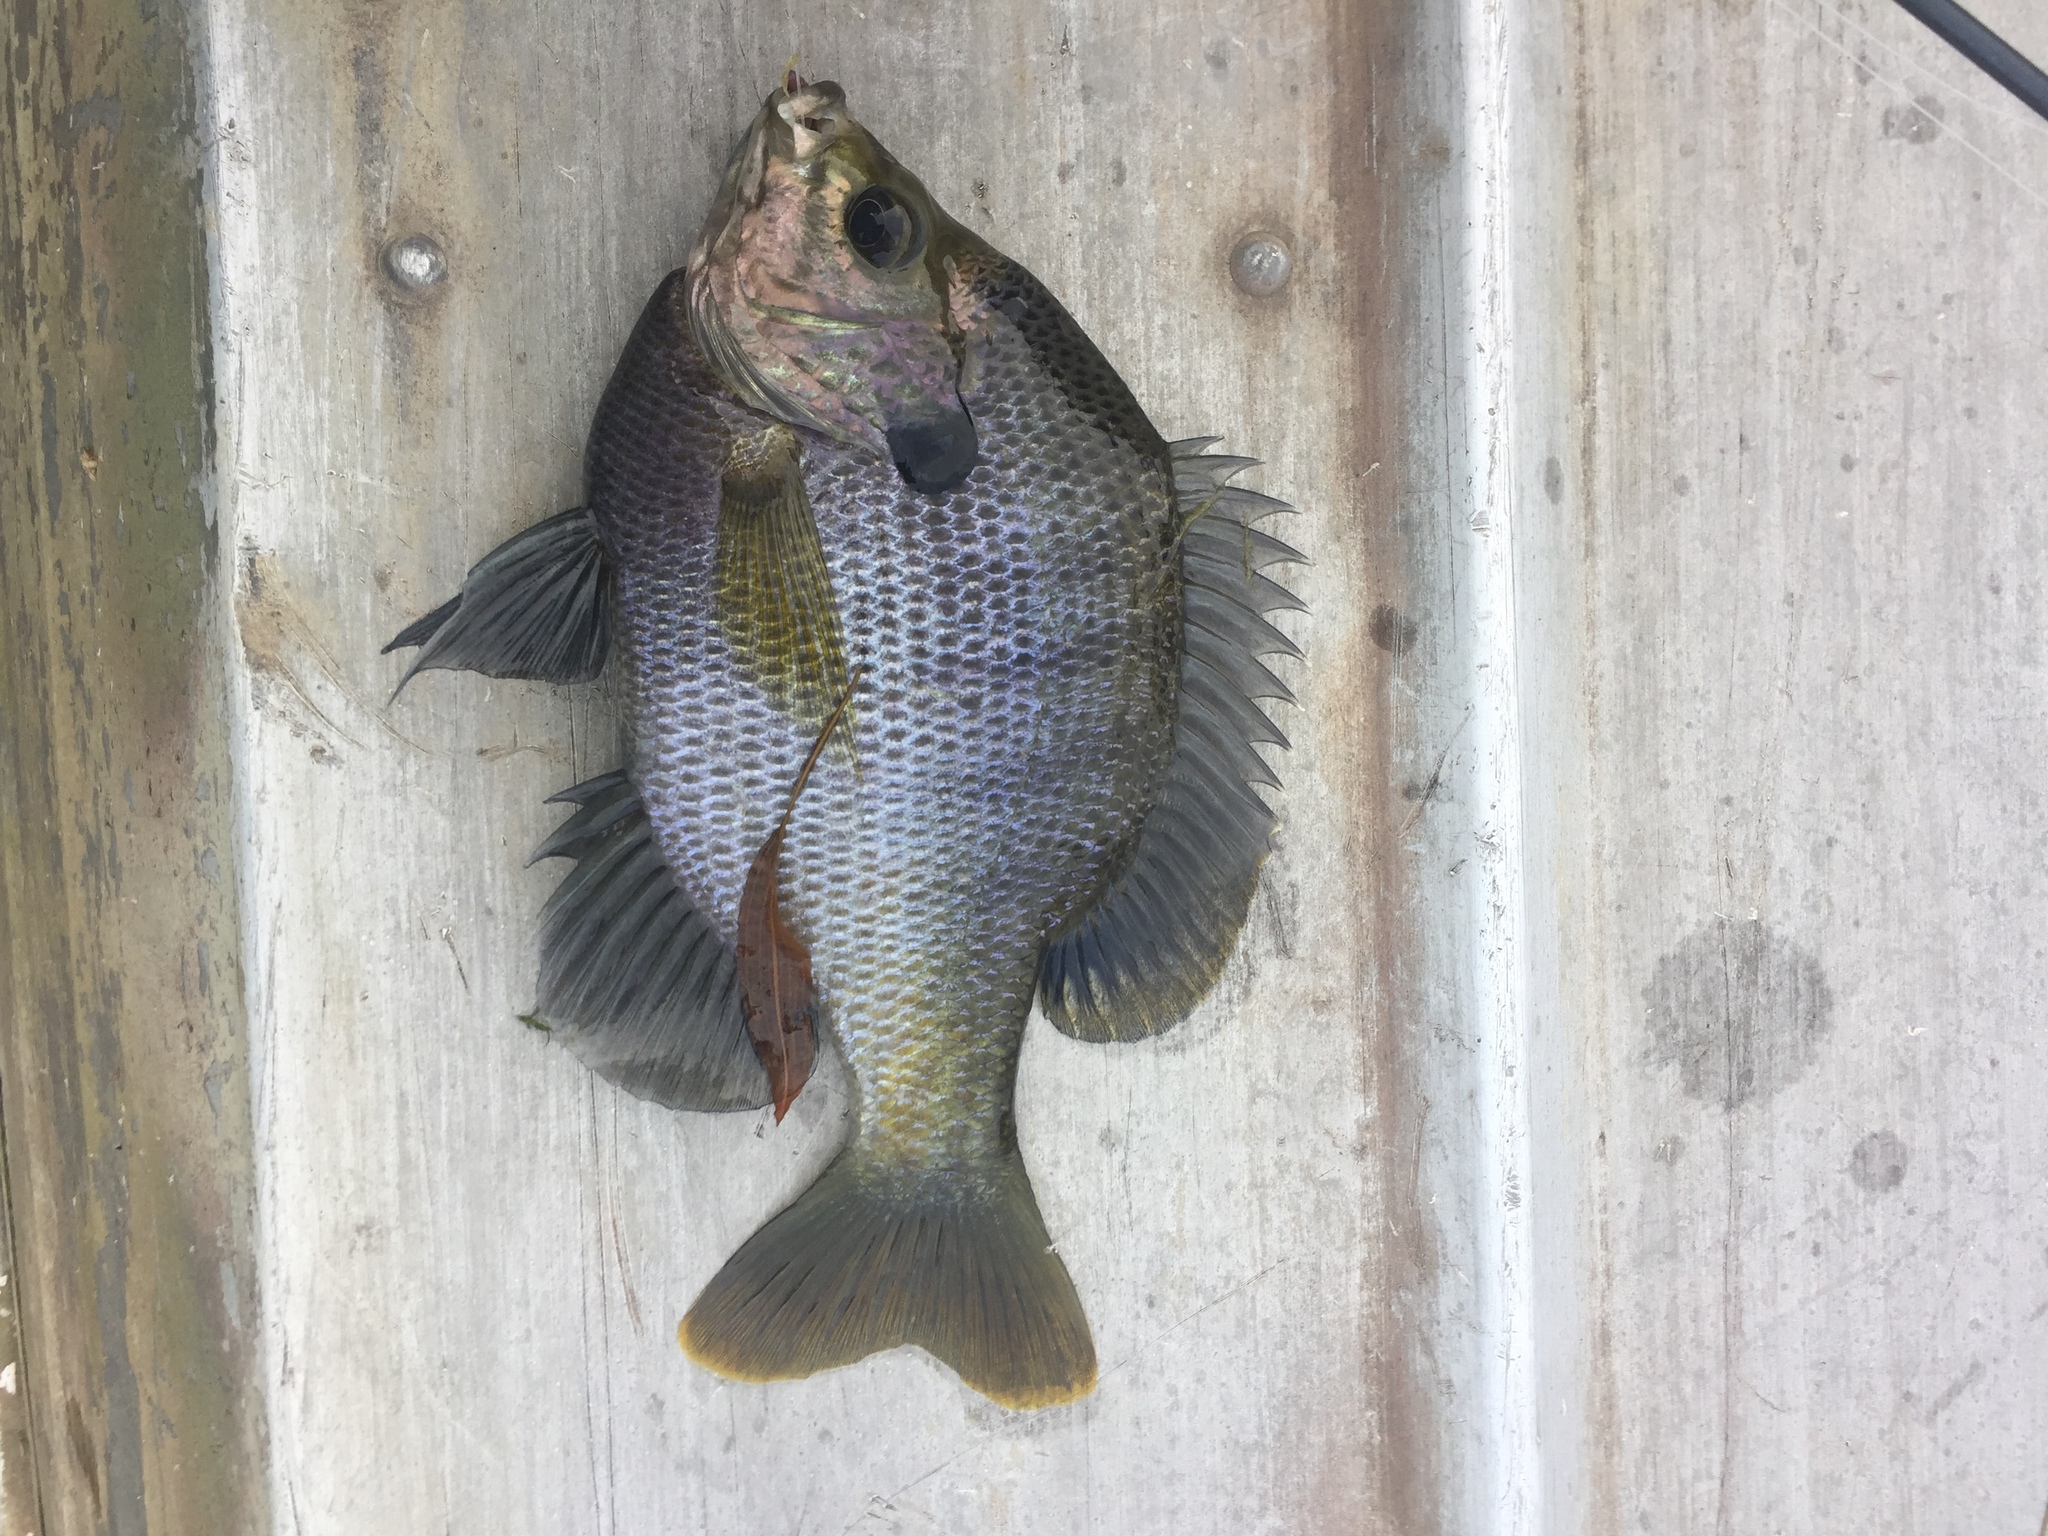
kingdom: Animalia
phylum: Chordata
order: Perciformes
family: Centrarchidae
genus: Lepomis
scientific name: Lepomis macrochirus
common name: Bluegill
